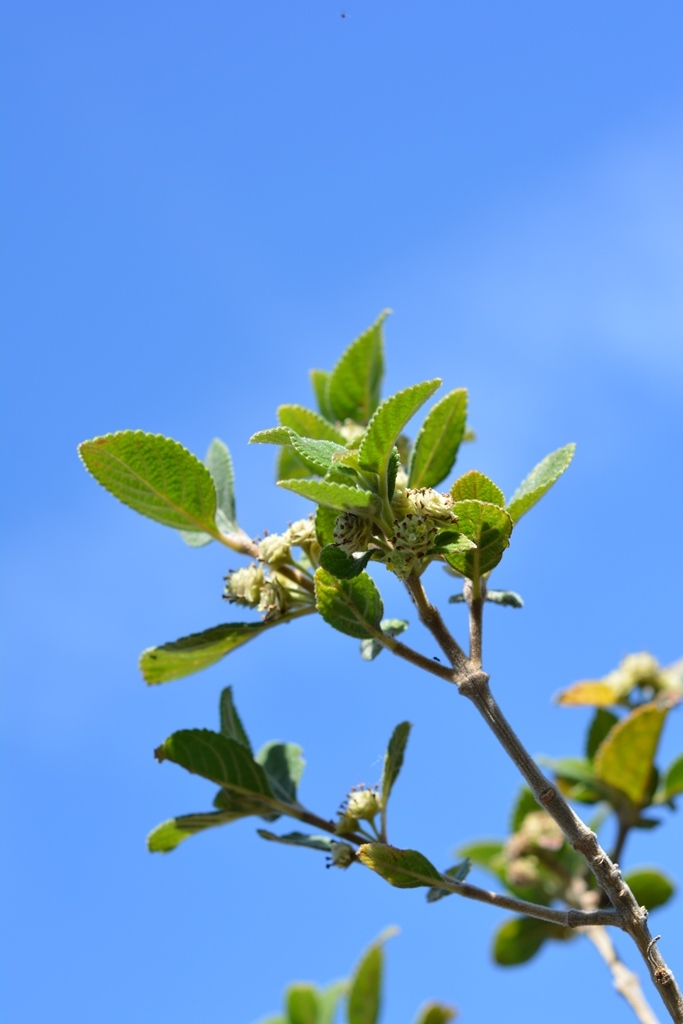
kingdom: Plantae
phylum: Tracheophyta
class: Magnoliopsida
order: Lamiales
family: Verbenaceae
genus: Lippia
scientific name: Lippia umbellata
